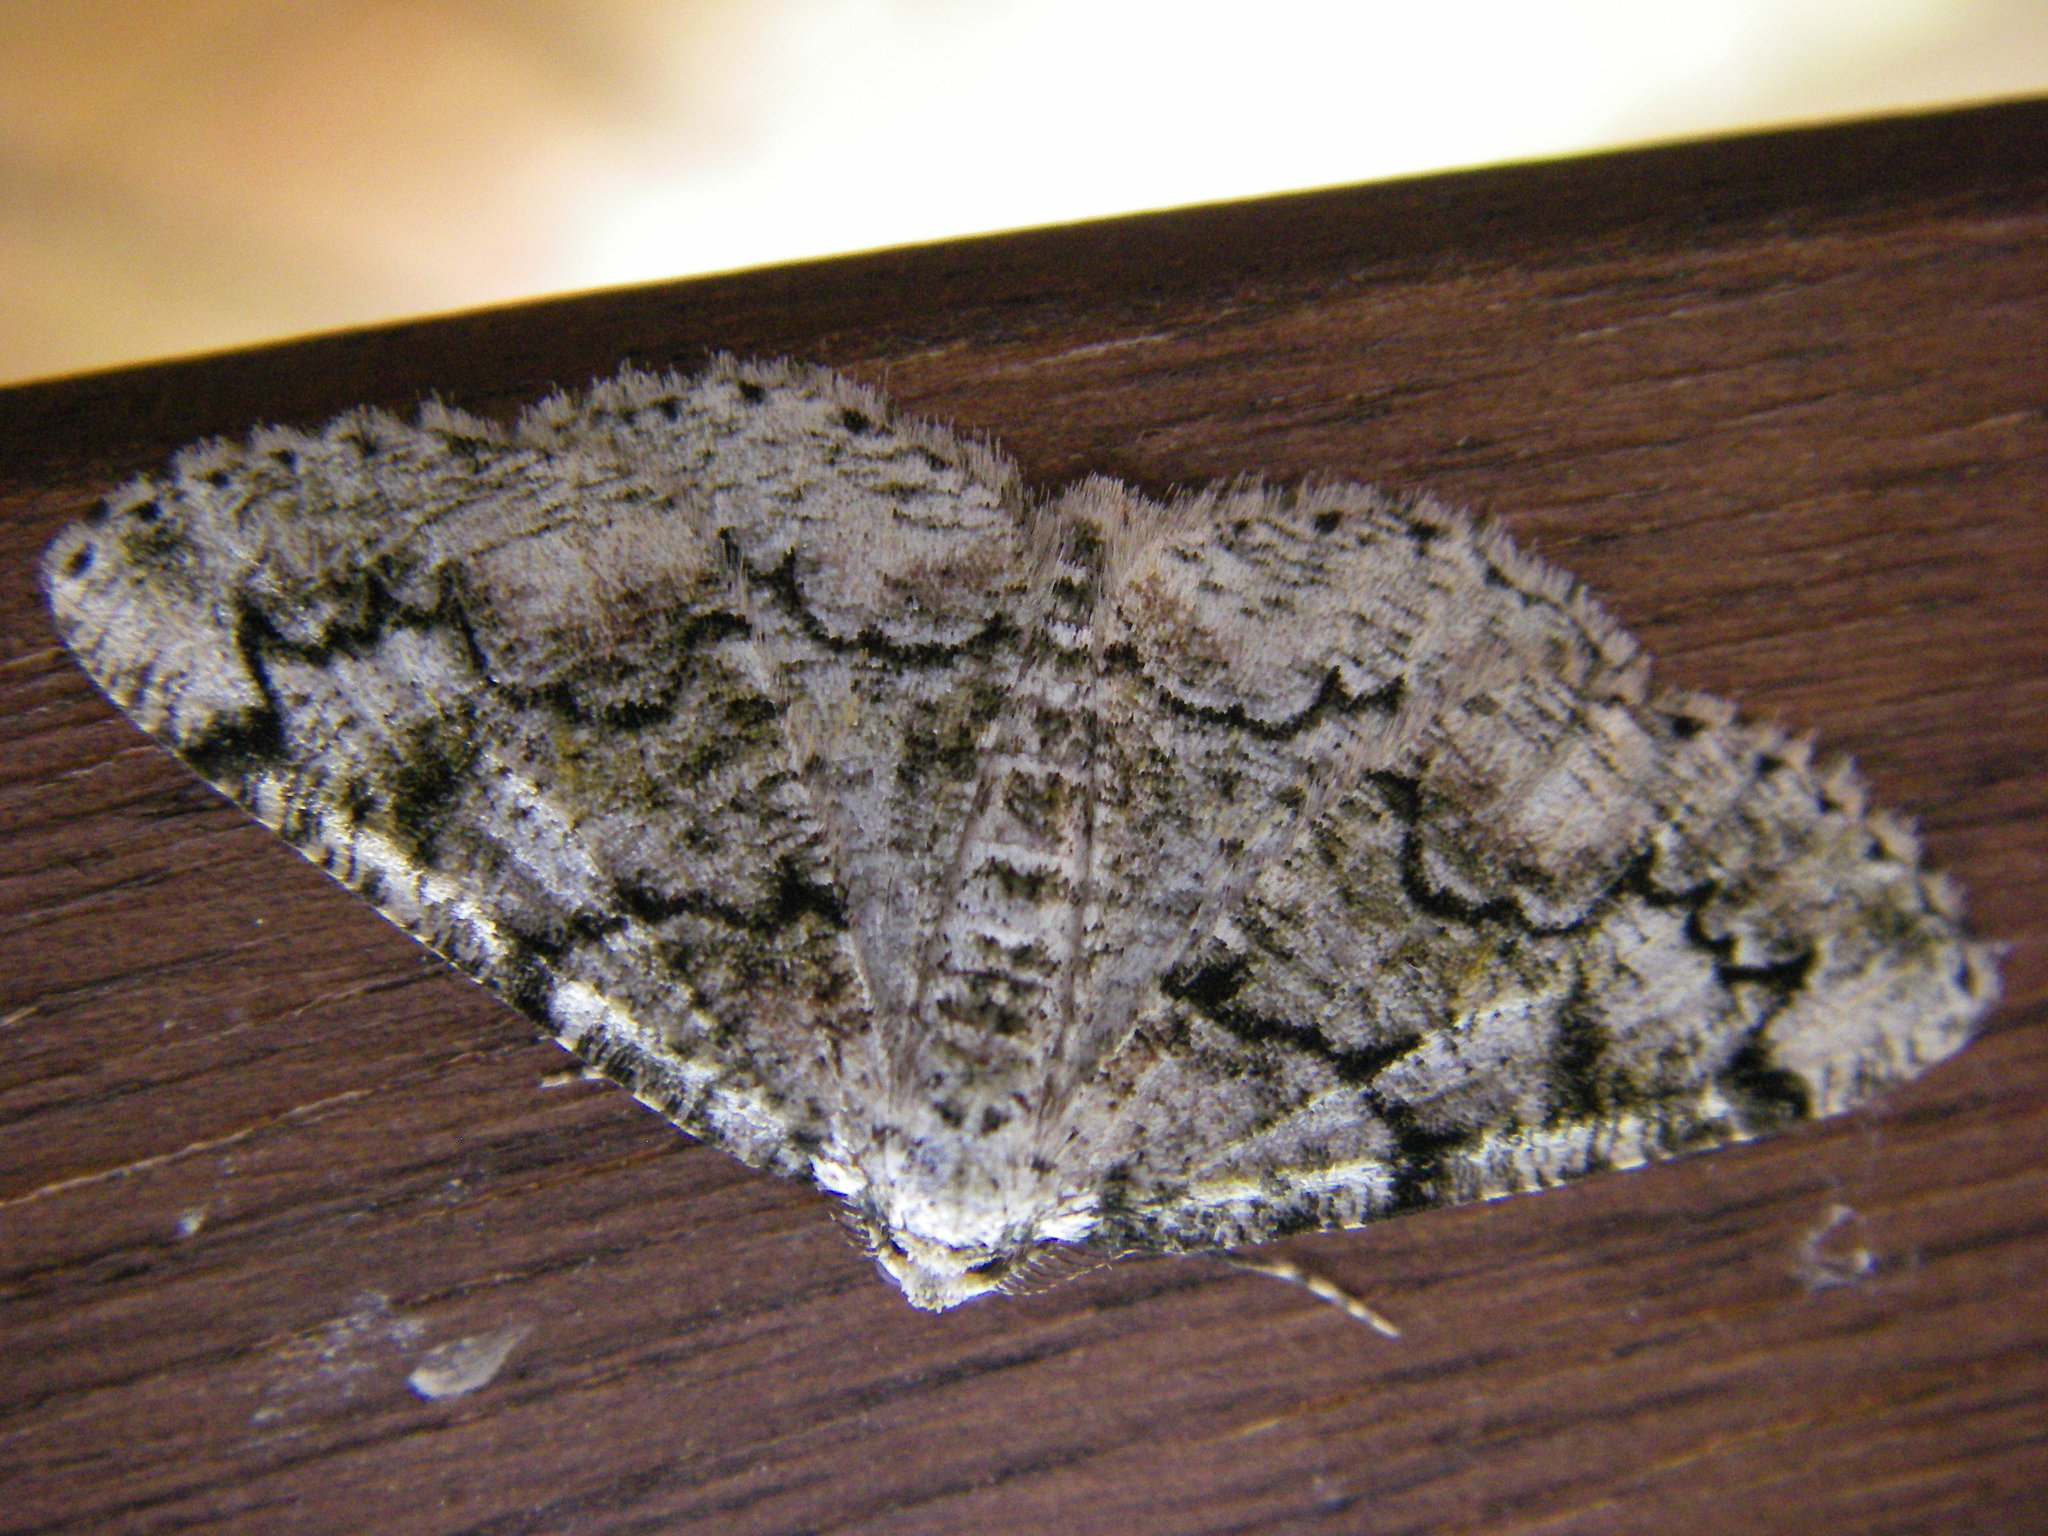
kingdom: Animalia
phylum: Arthropoda
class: Insecta
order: Lepidoptera
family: Geometridae
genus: Cleorodes
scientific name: Cleorodes lichenaria
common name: Brussels lace
